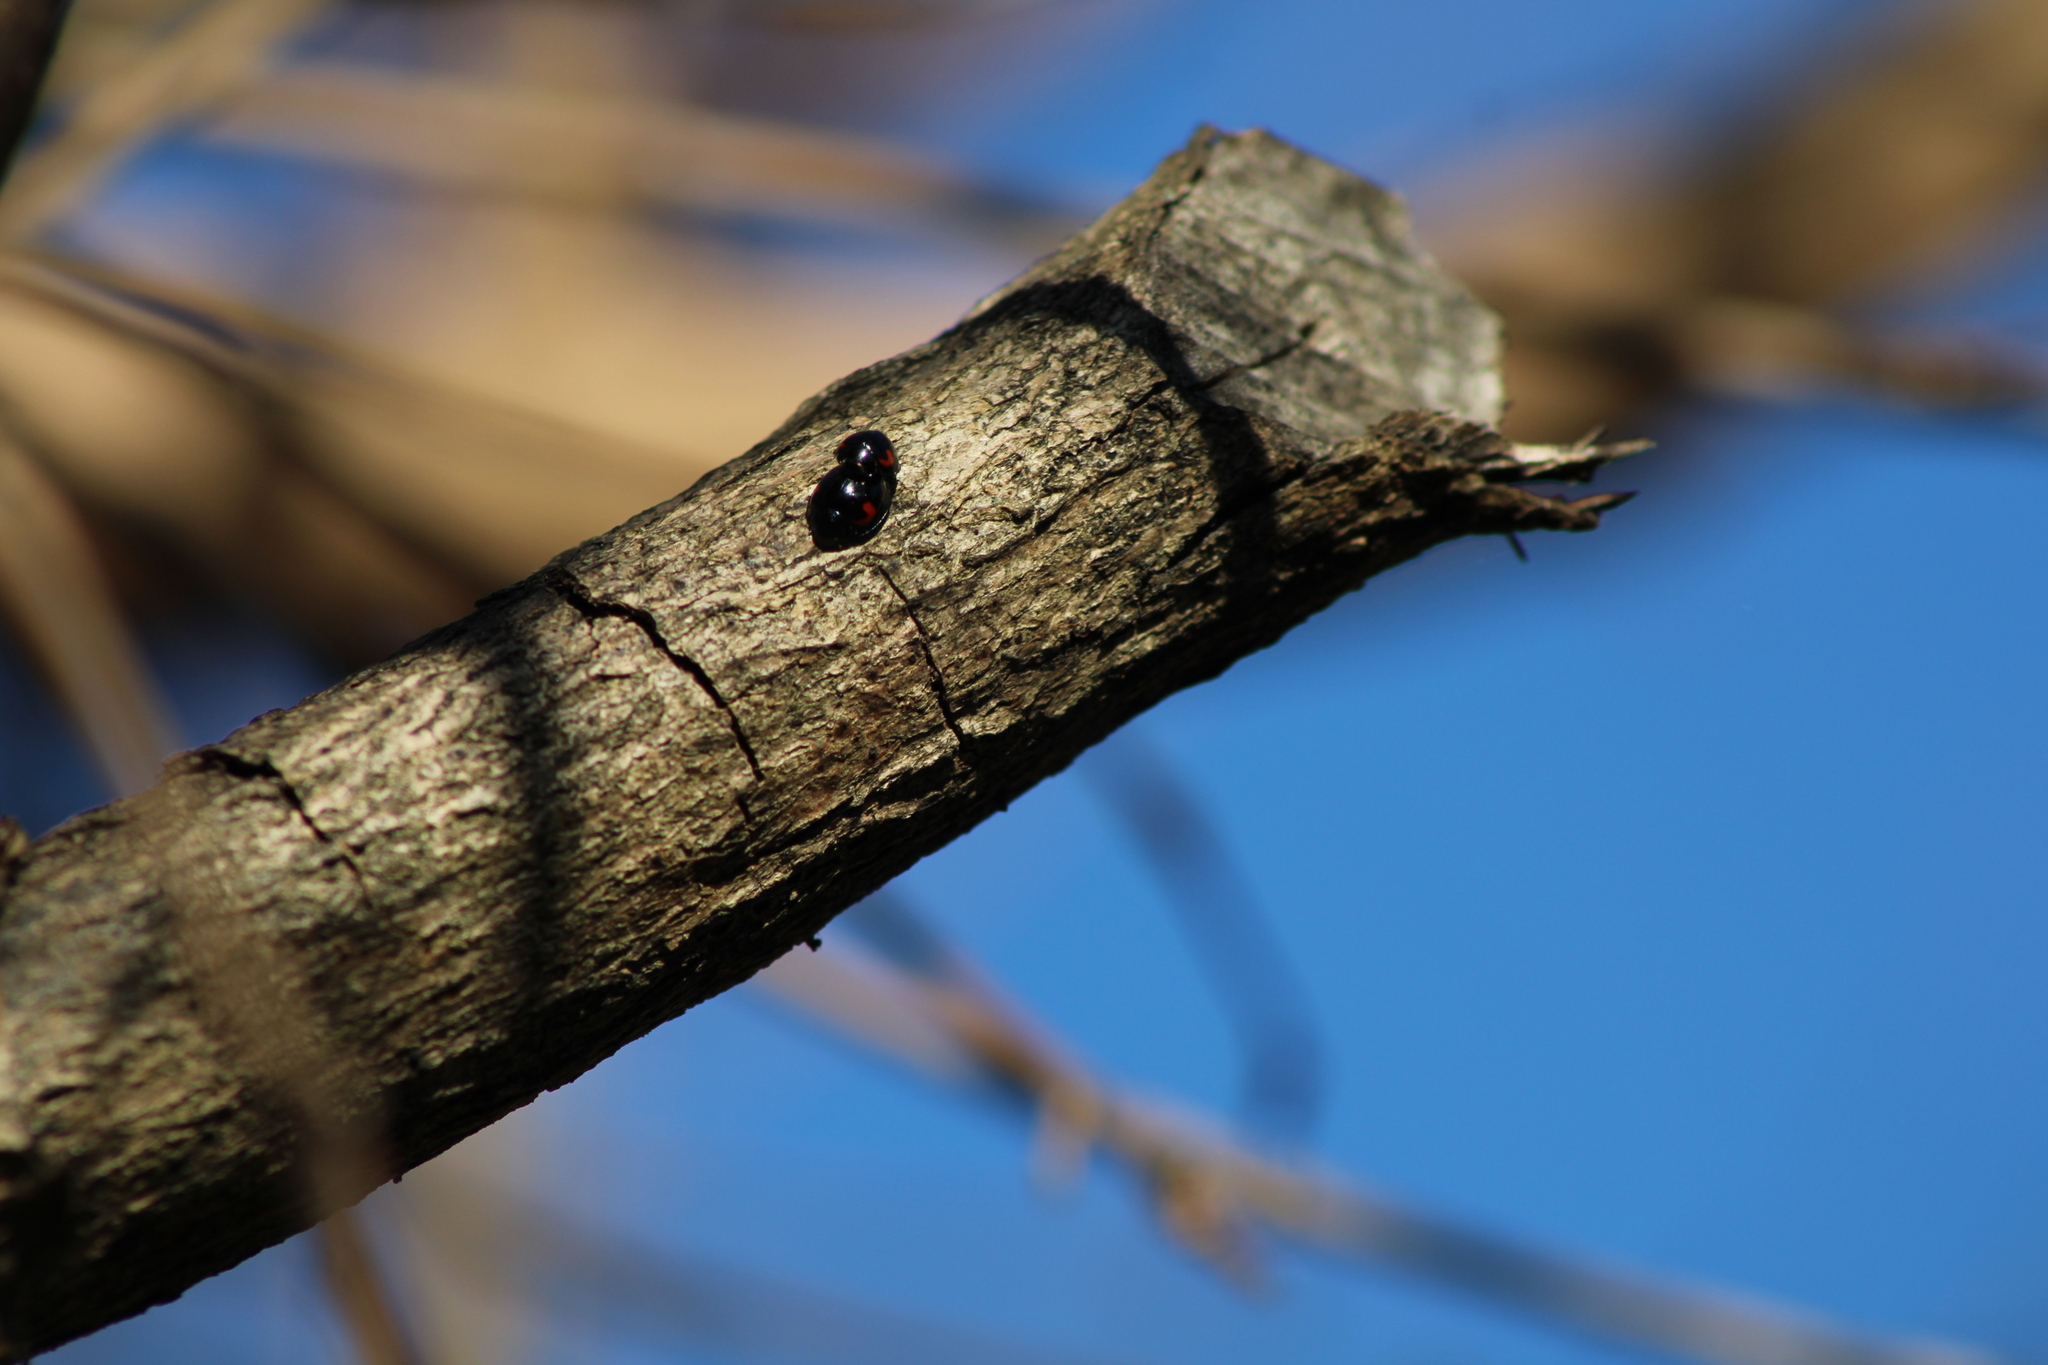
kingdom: Animalia
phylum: Arthropoda
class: Insecta
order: Coleoptera
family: Coccinellidae
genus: Brumus
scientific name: Brumus quadripustulatus
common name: Ladybird beetle
